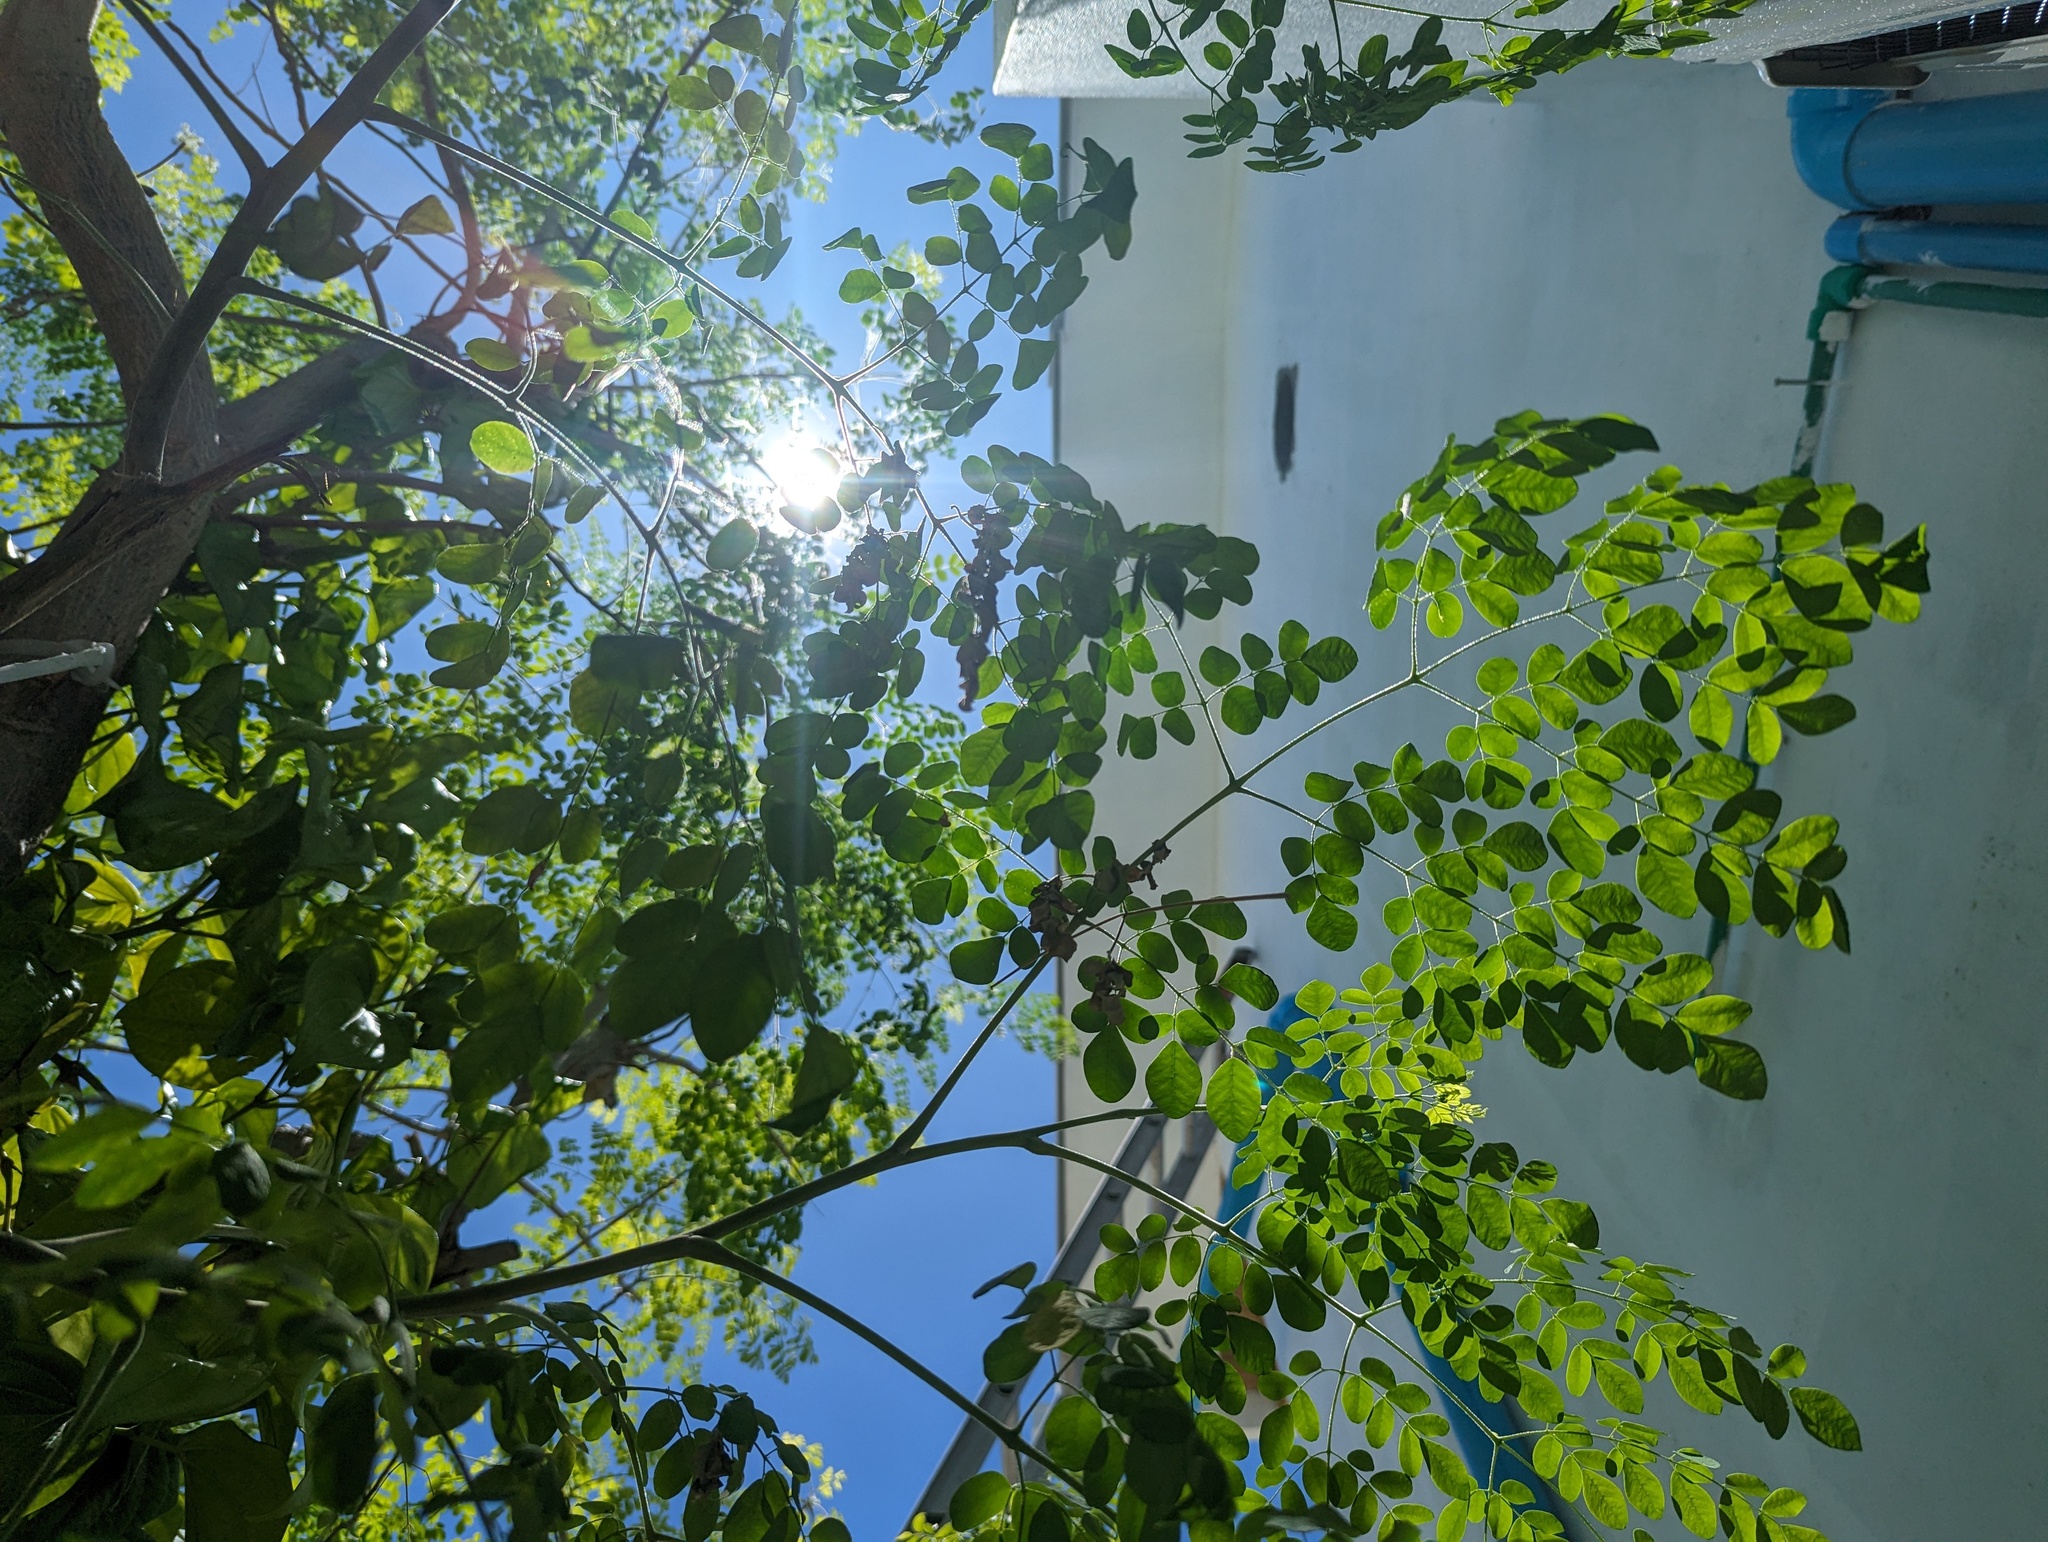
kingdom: Plantae
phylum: Tracheophyta
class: Magnoliopsida
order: Brassicales
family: Moringaceae
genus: Moringa
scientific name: Moringa oleifera
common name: Horseradish-tree
